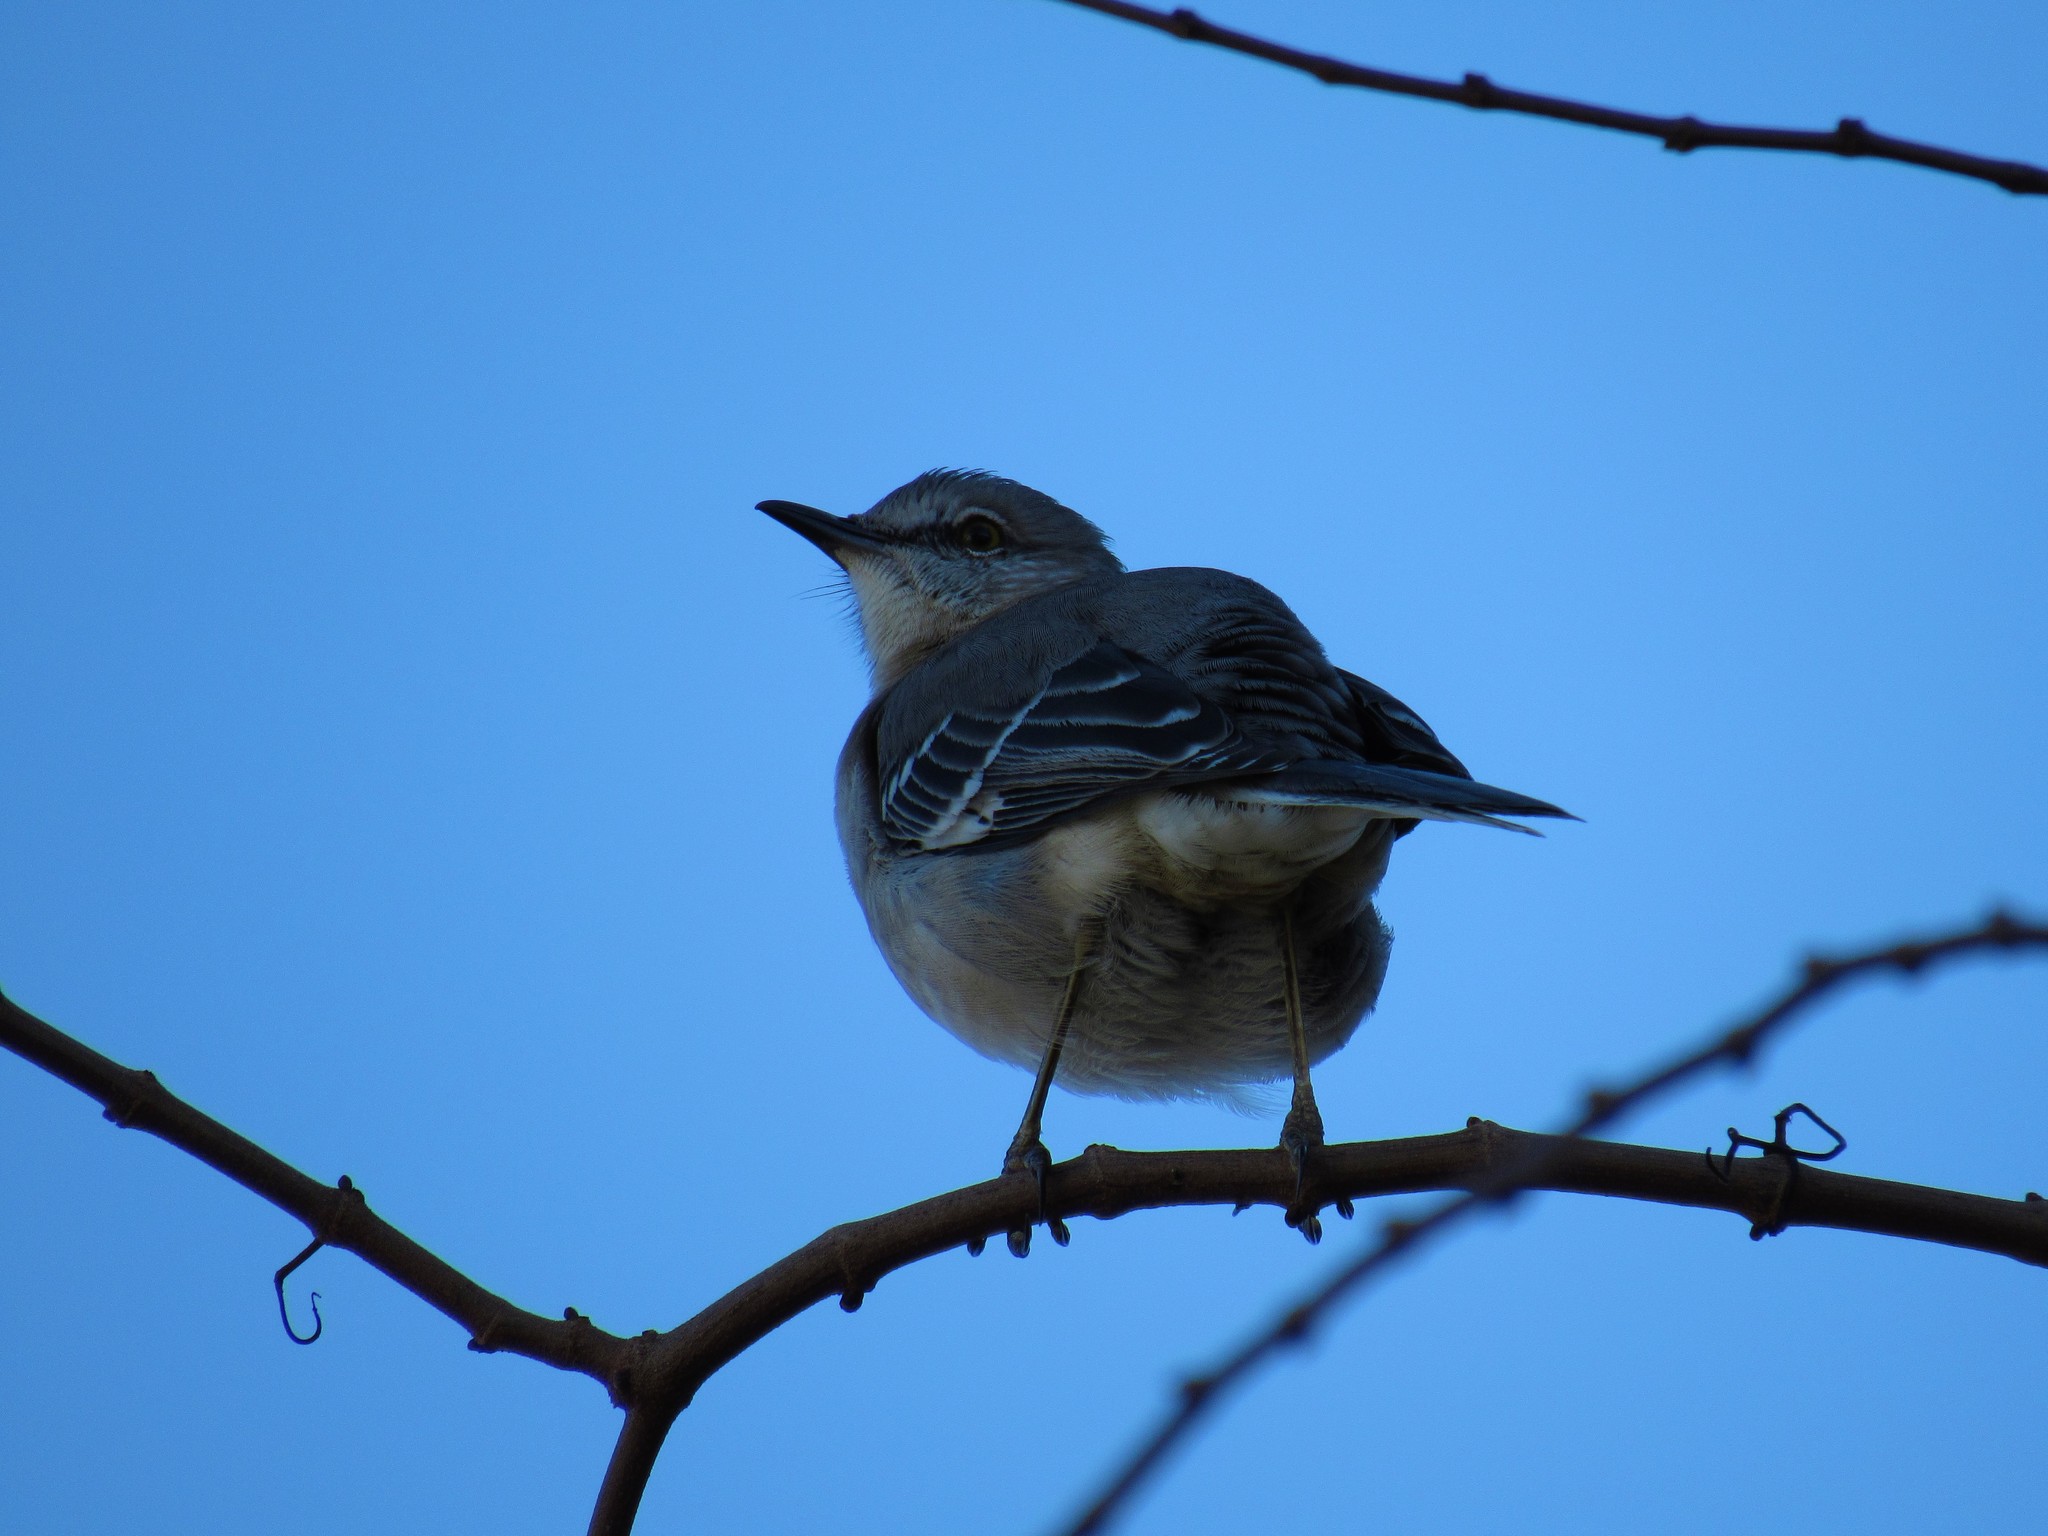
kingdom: Animalia
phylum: Chordata
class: Aves
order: Passeriformes
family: Mimidae
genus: Mimus
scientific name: Mimus polyglottos
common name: Northern mockingbird
